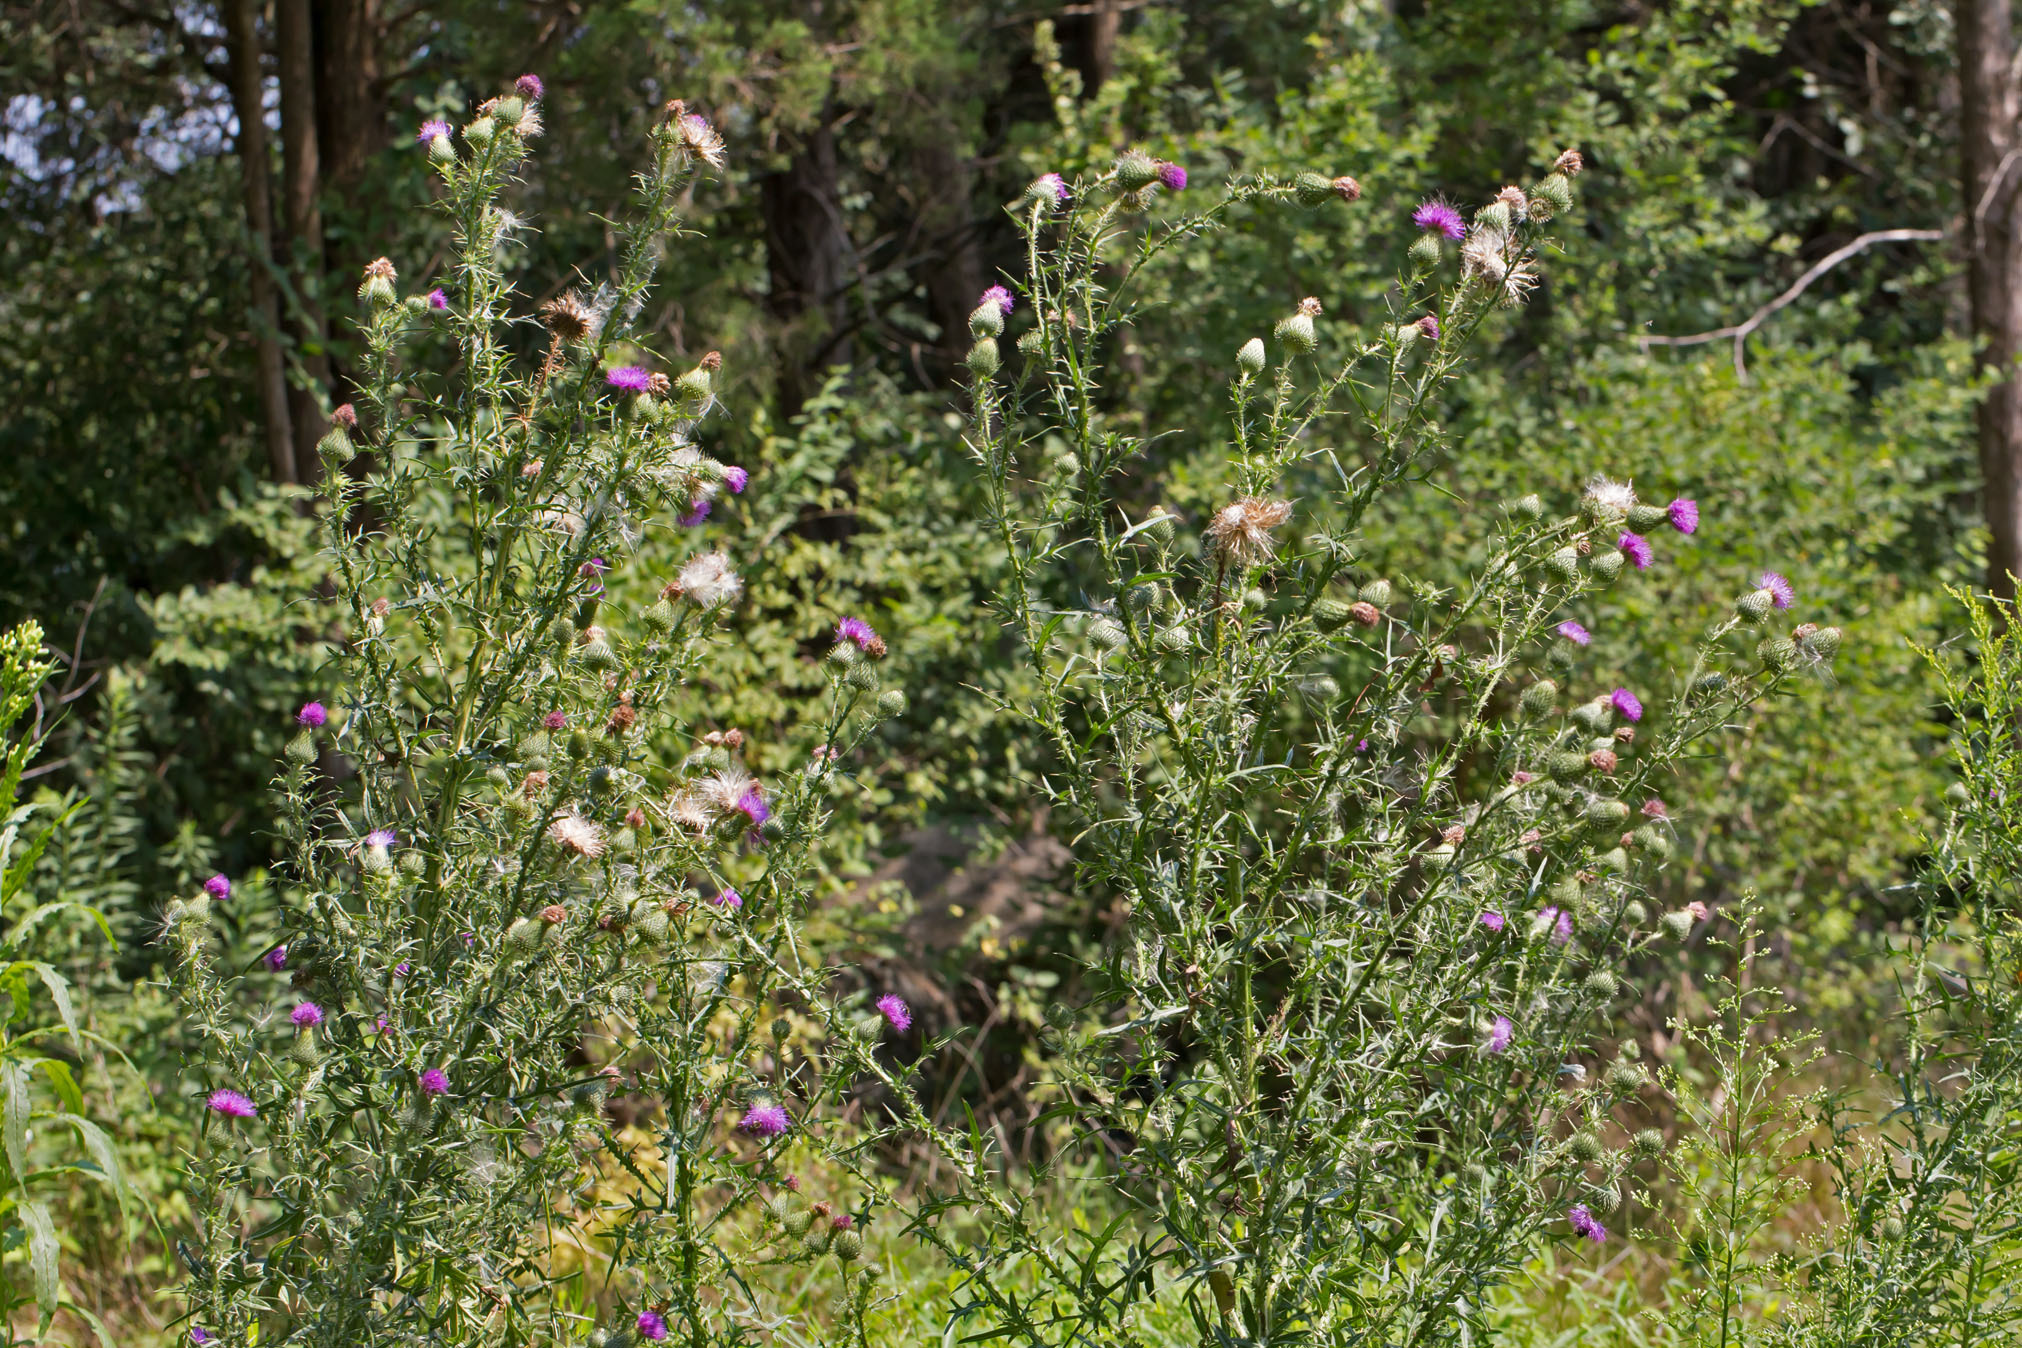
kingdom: Plantae
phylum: Tracheophyta
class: Magnoliopsida
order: Asterales
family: Asteraceae
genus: Cirsium
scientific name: Cirsium vulgare
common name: Bull thistle
